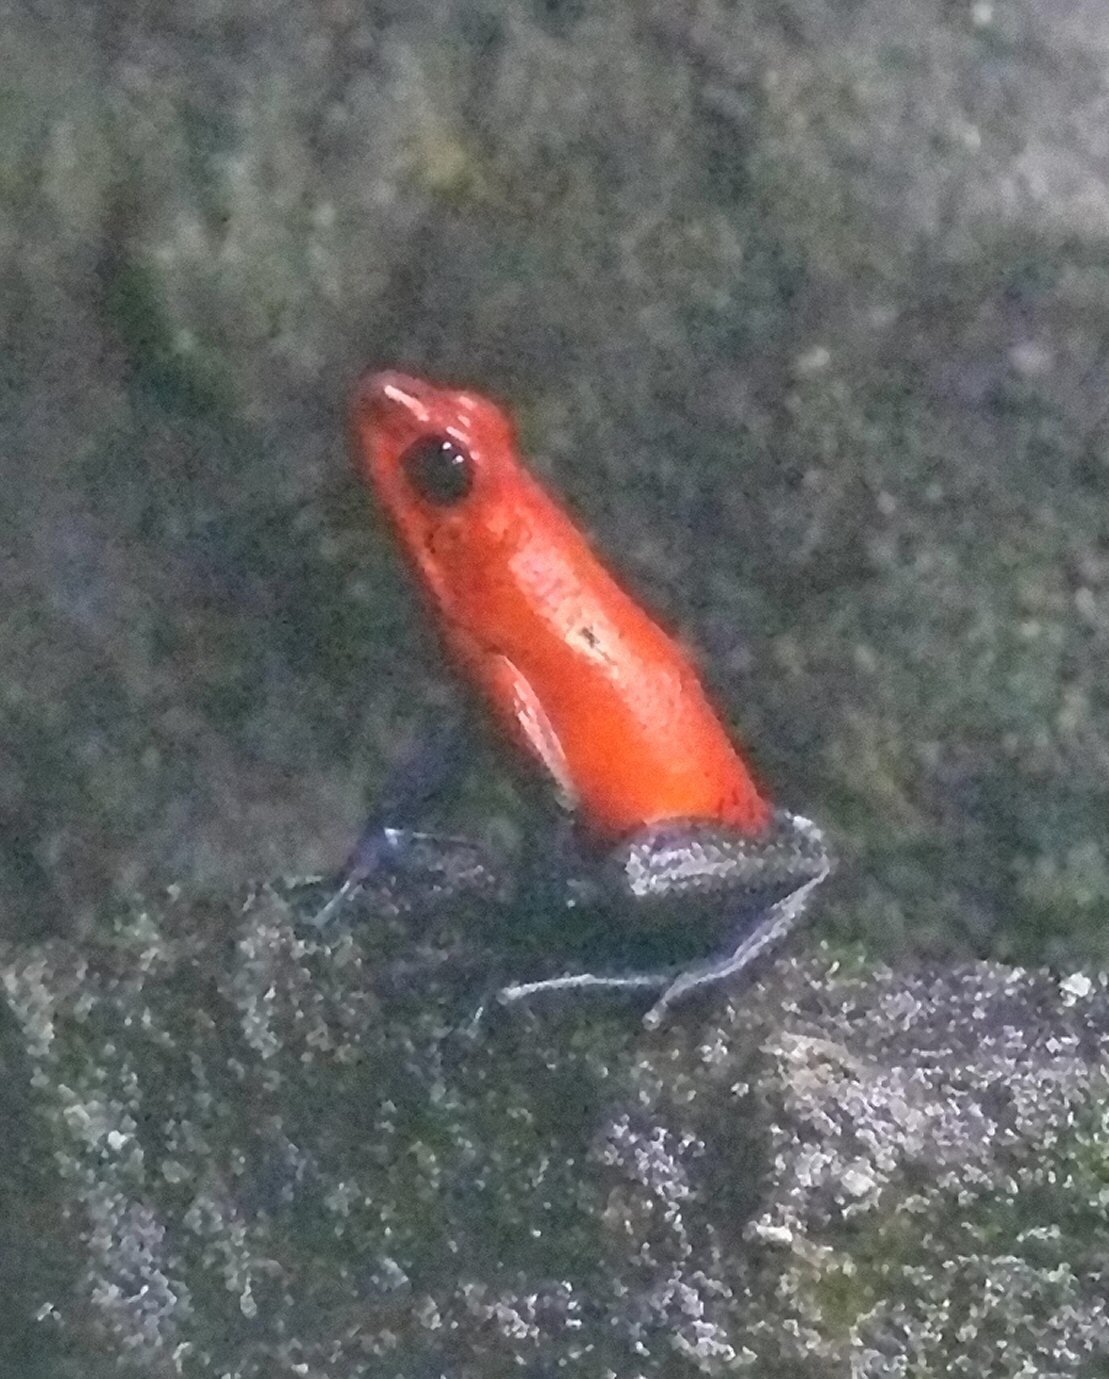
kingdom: Animalia
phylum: Chordata
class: Amphibia
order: Anura
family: Dendrobatidae
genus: Oophaga
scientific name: Oophaga pumilio
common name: Flaming poison frog
